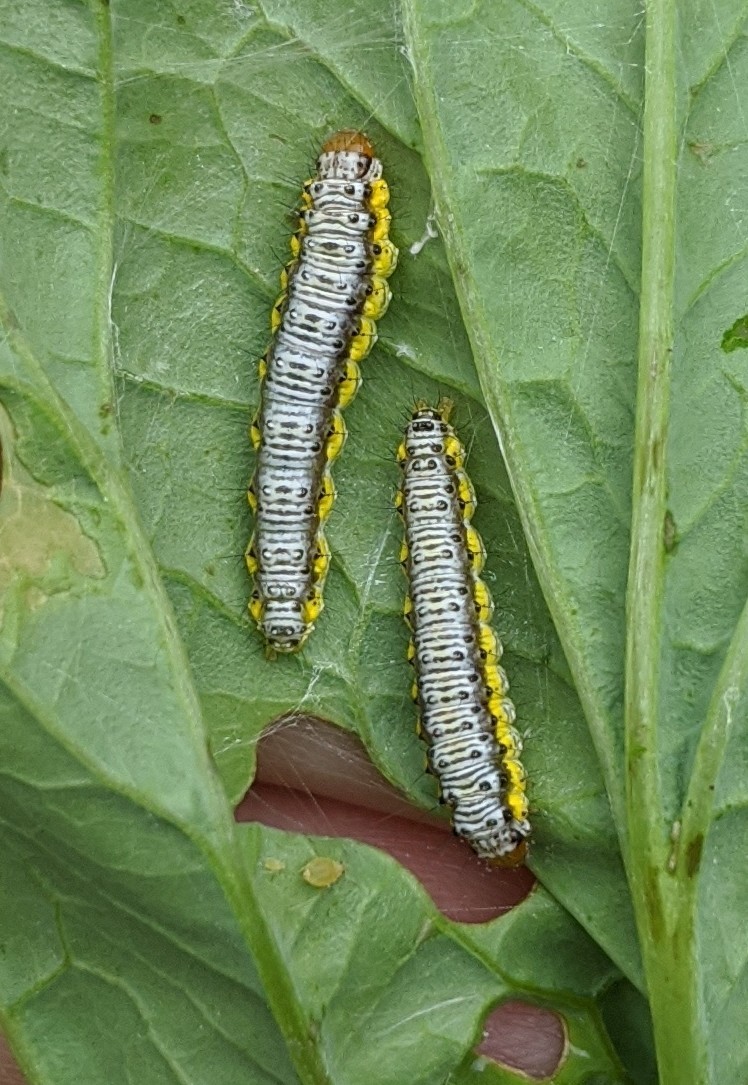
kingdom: Animalia
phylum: Arthropoda
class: Insecta
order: Lepidoptera
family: Crambidae
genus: Evergestis
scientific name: Evergestis rimosalis
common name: Cross-striped cabbageworm moth
